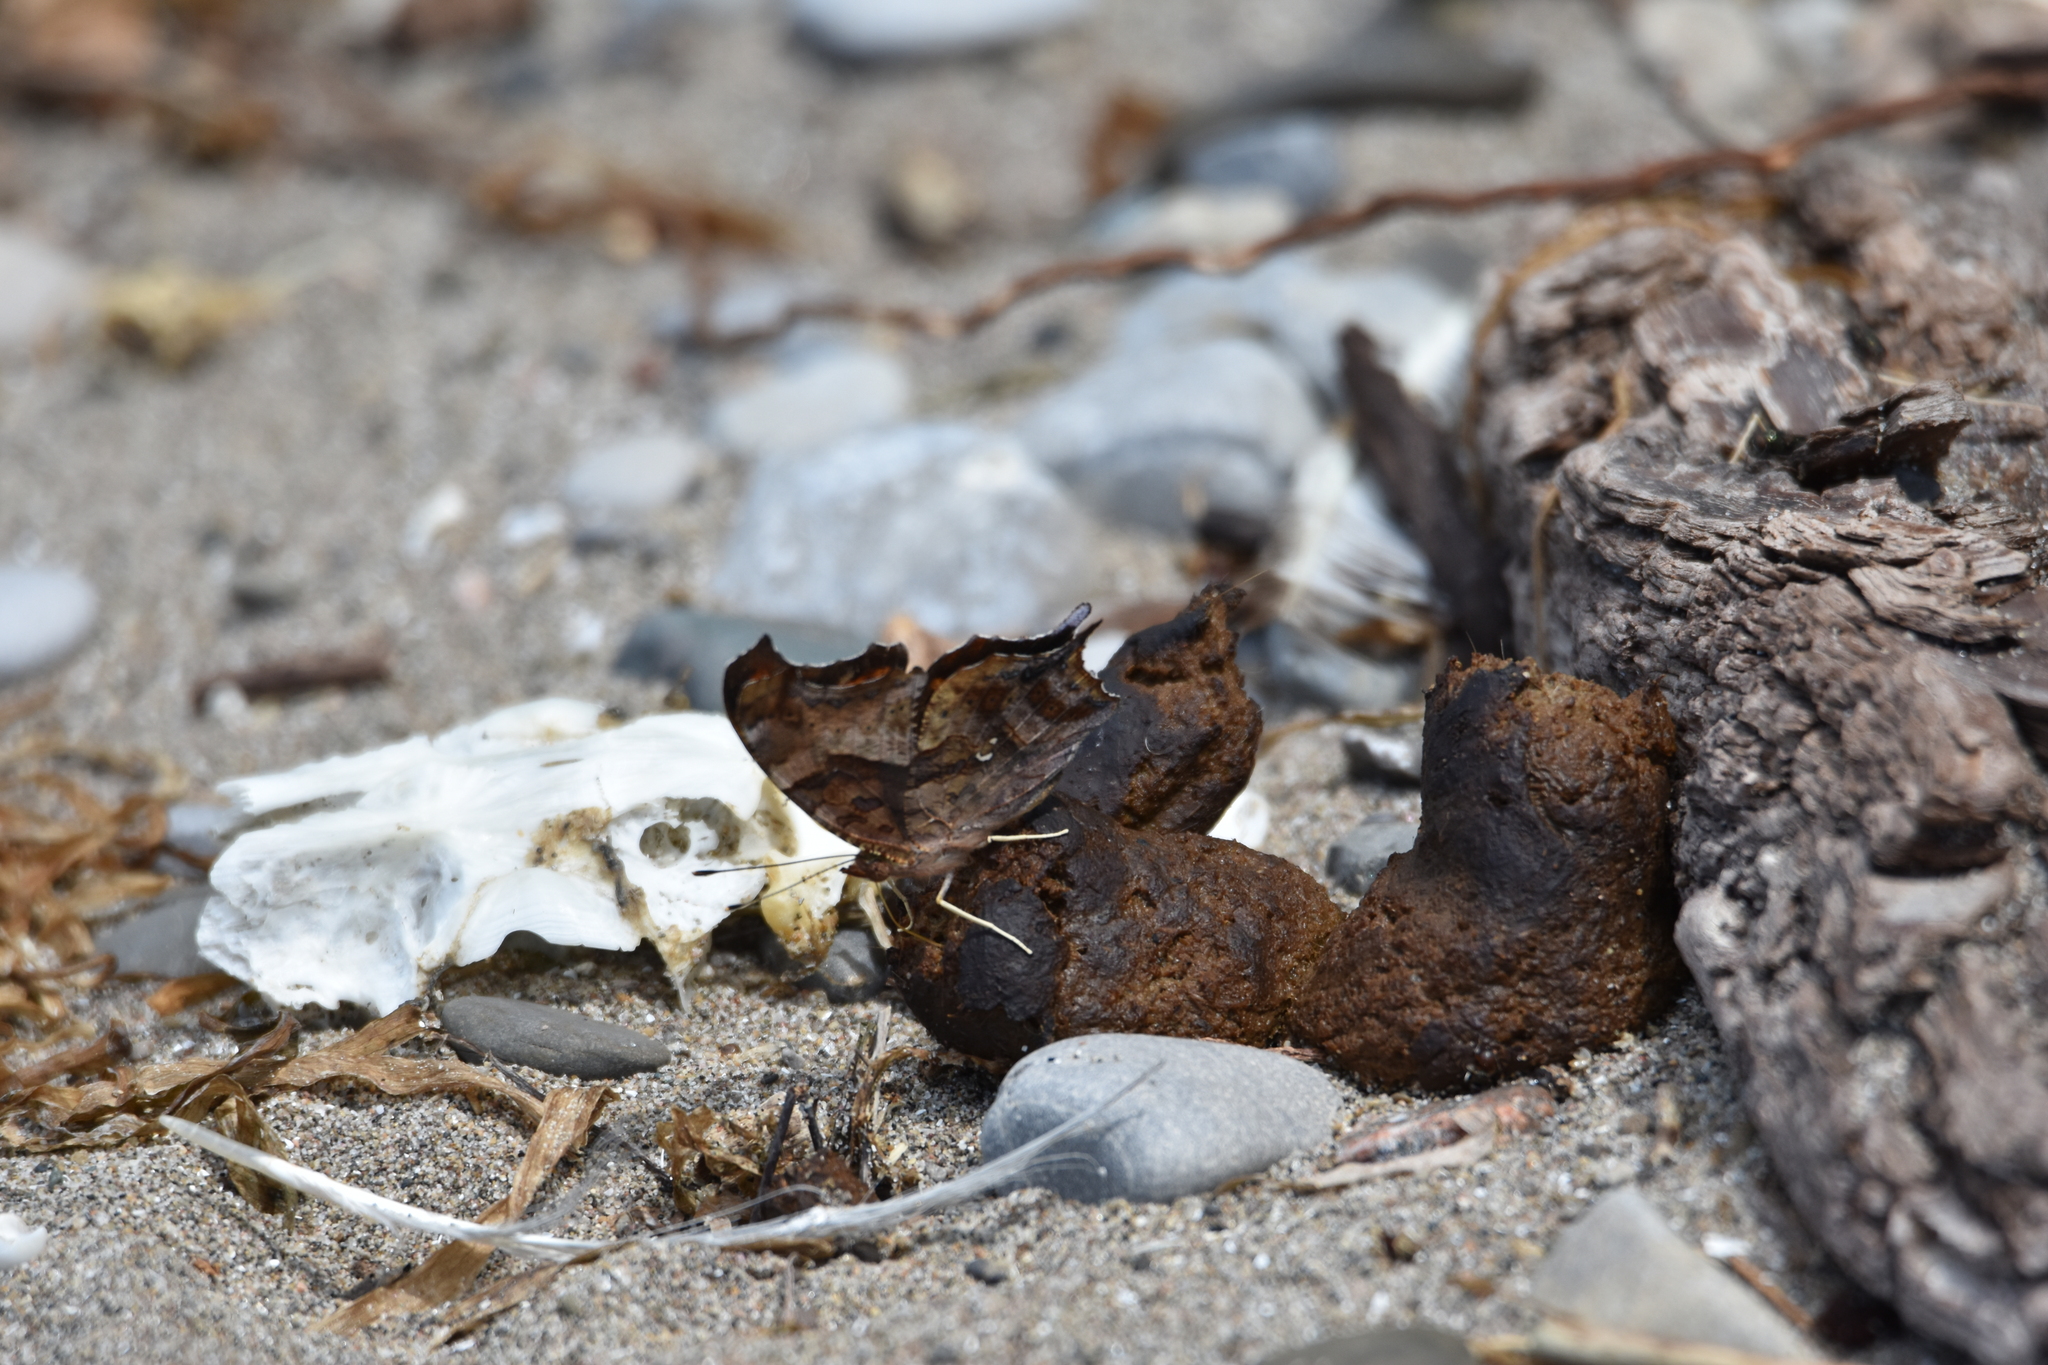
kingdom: Animalia
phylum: Arthropoda
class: Insecta
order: Lepidoptera
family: Nymphalidae
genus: Polygonia
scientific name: Polygonia interrogationis
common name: Question mark
